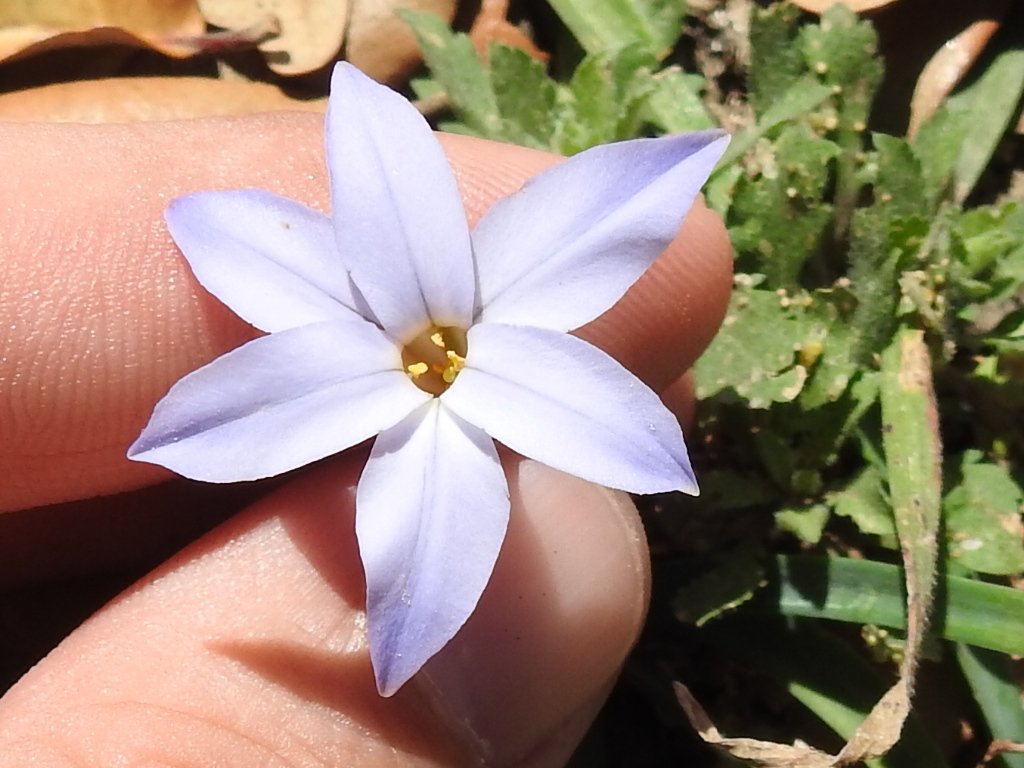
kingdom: Plantae
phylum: Tracheophyta
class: Liliopsida
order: Asparagales
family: Amaryllidaceae
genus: Ipheion
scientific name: Ipheion uniflorum
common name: Spring starflower
